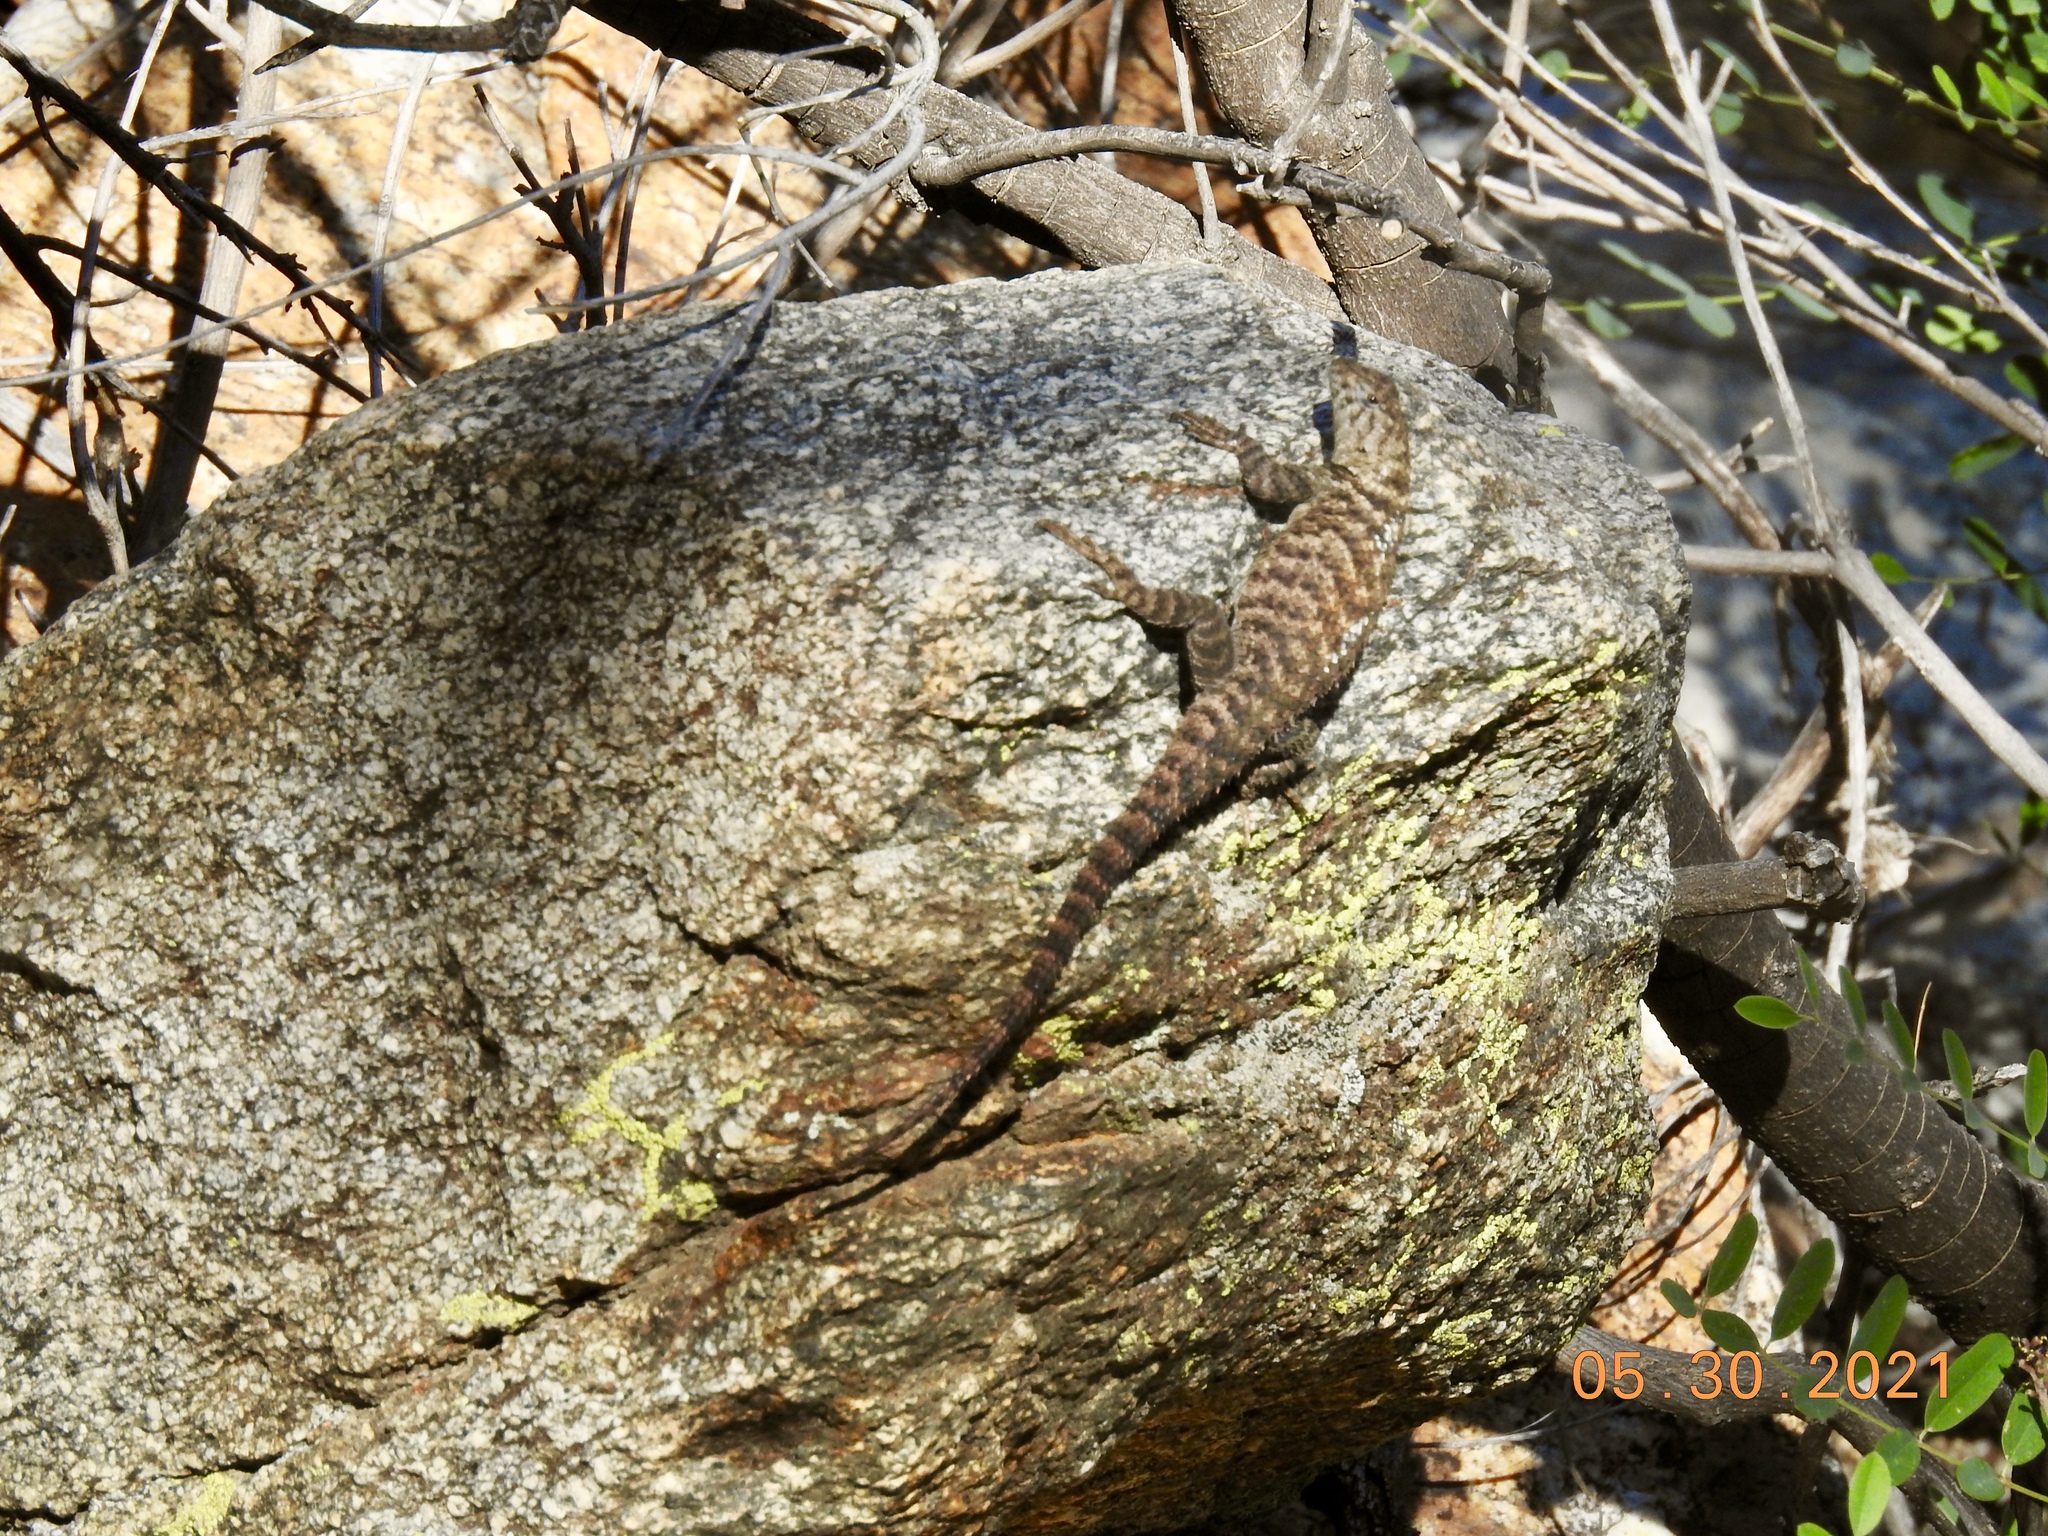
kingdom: Animalia
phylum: Chordata
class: Squamata
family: Phrynosomatidae
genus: Sceloporus
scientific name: Sceloporus orcutti
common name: Granite spiny lizard
